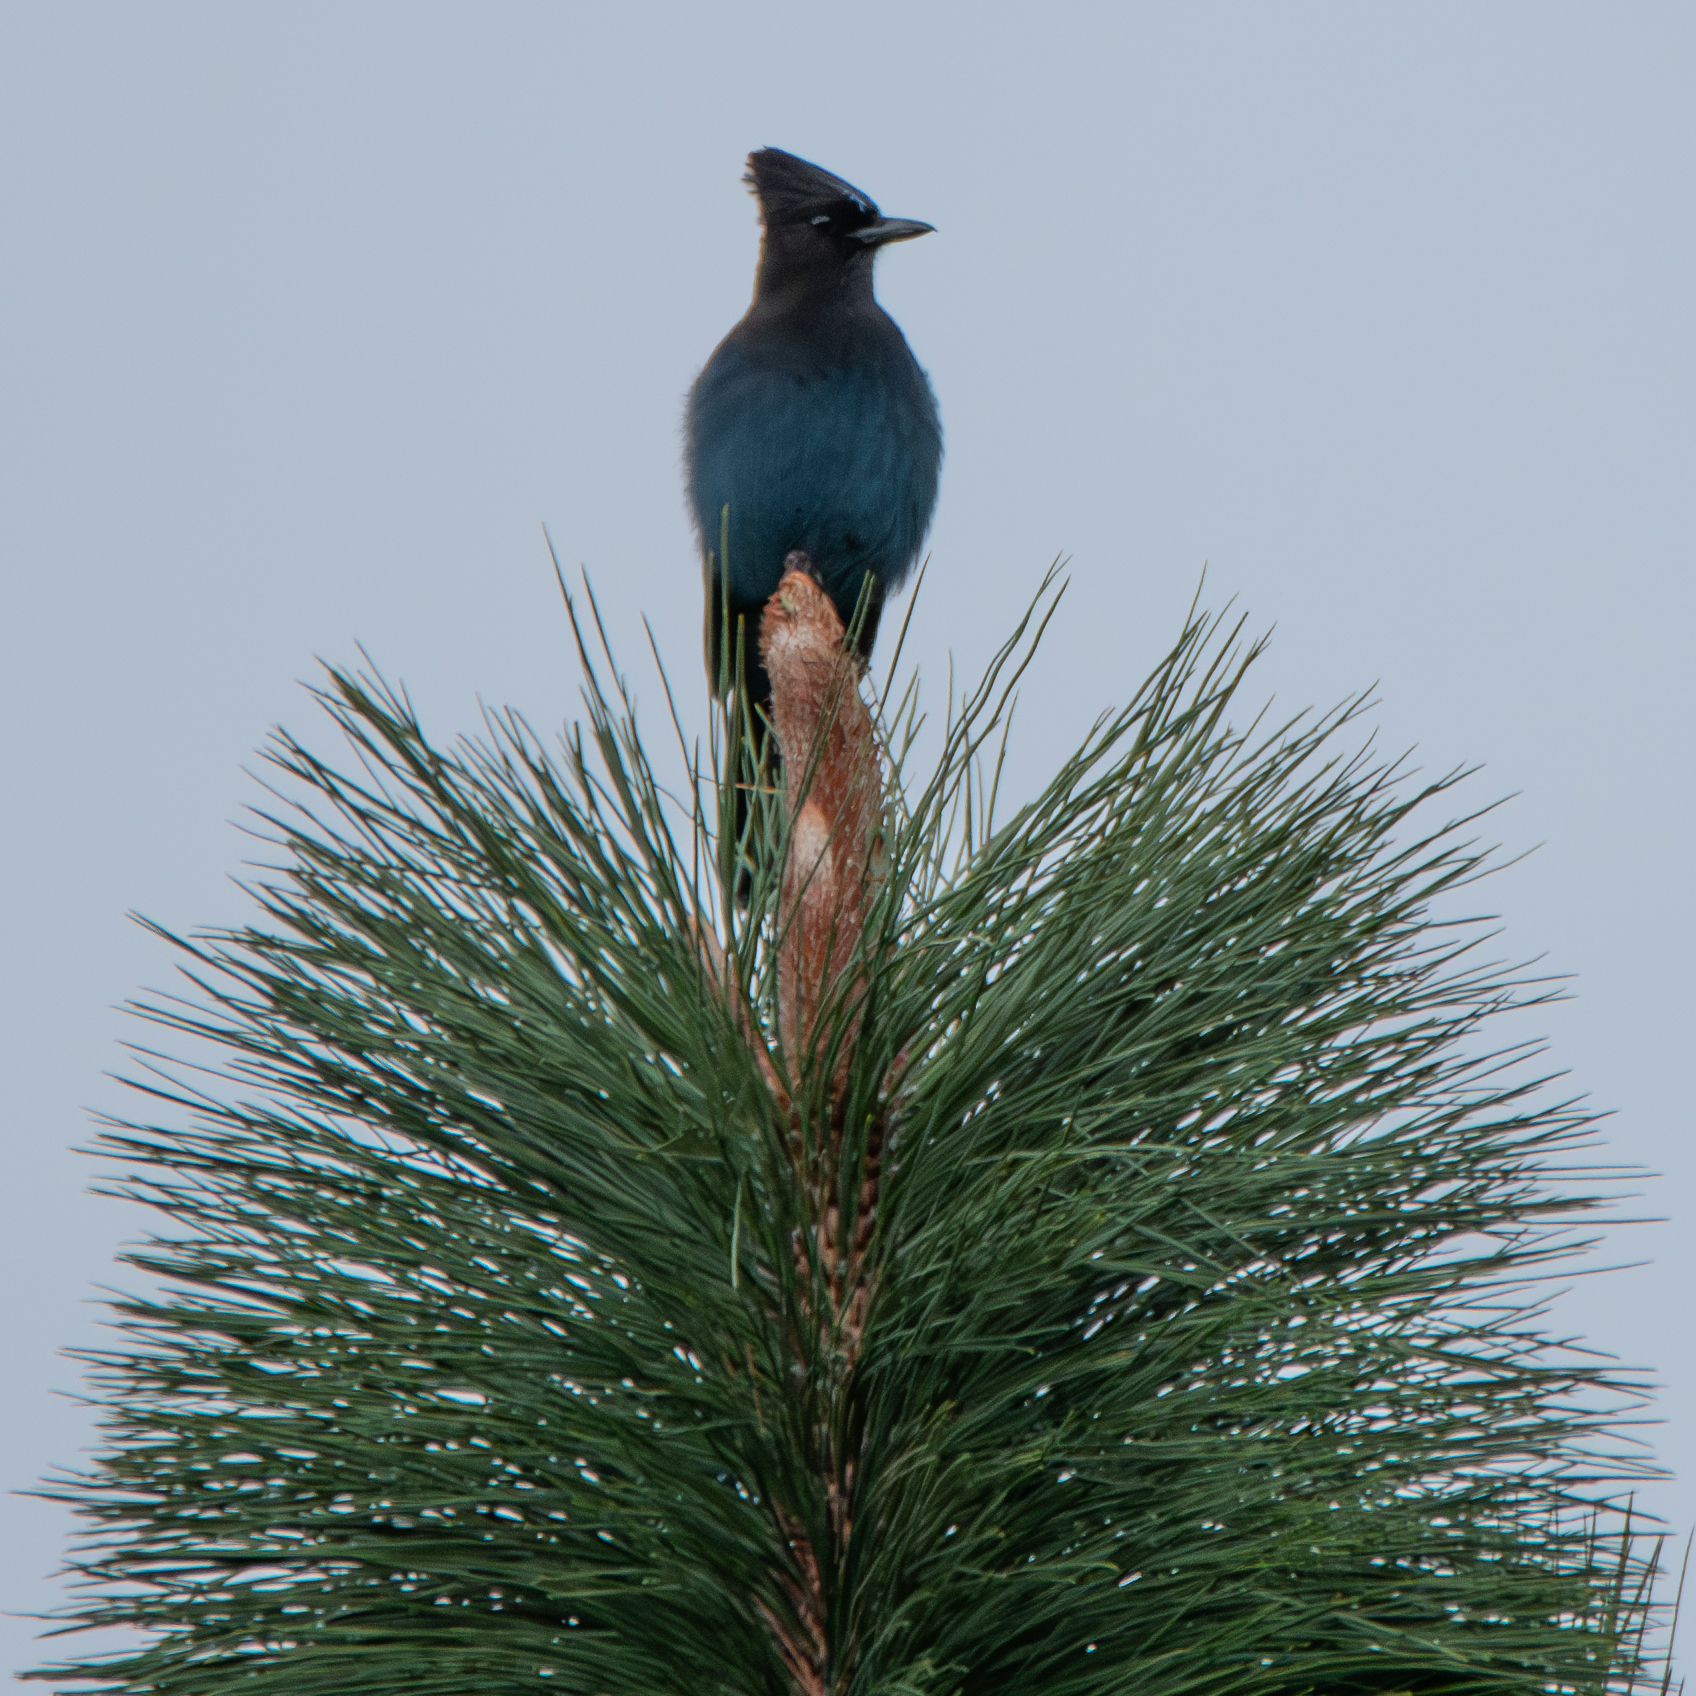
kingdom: Animalia
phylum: Chordata
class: Aves
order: Passeriformes
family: Corvidae
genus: Cyanocitta
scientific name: Cyanocitta stelleri
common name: Steller's jay
